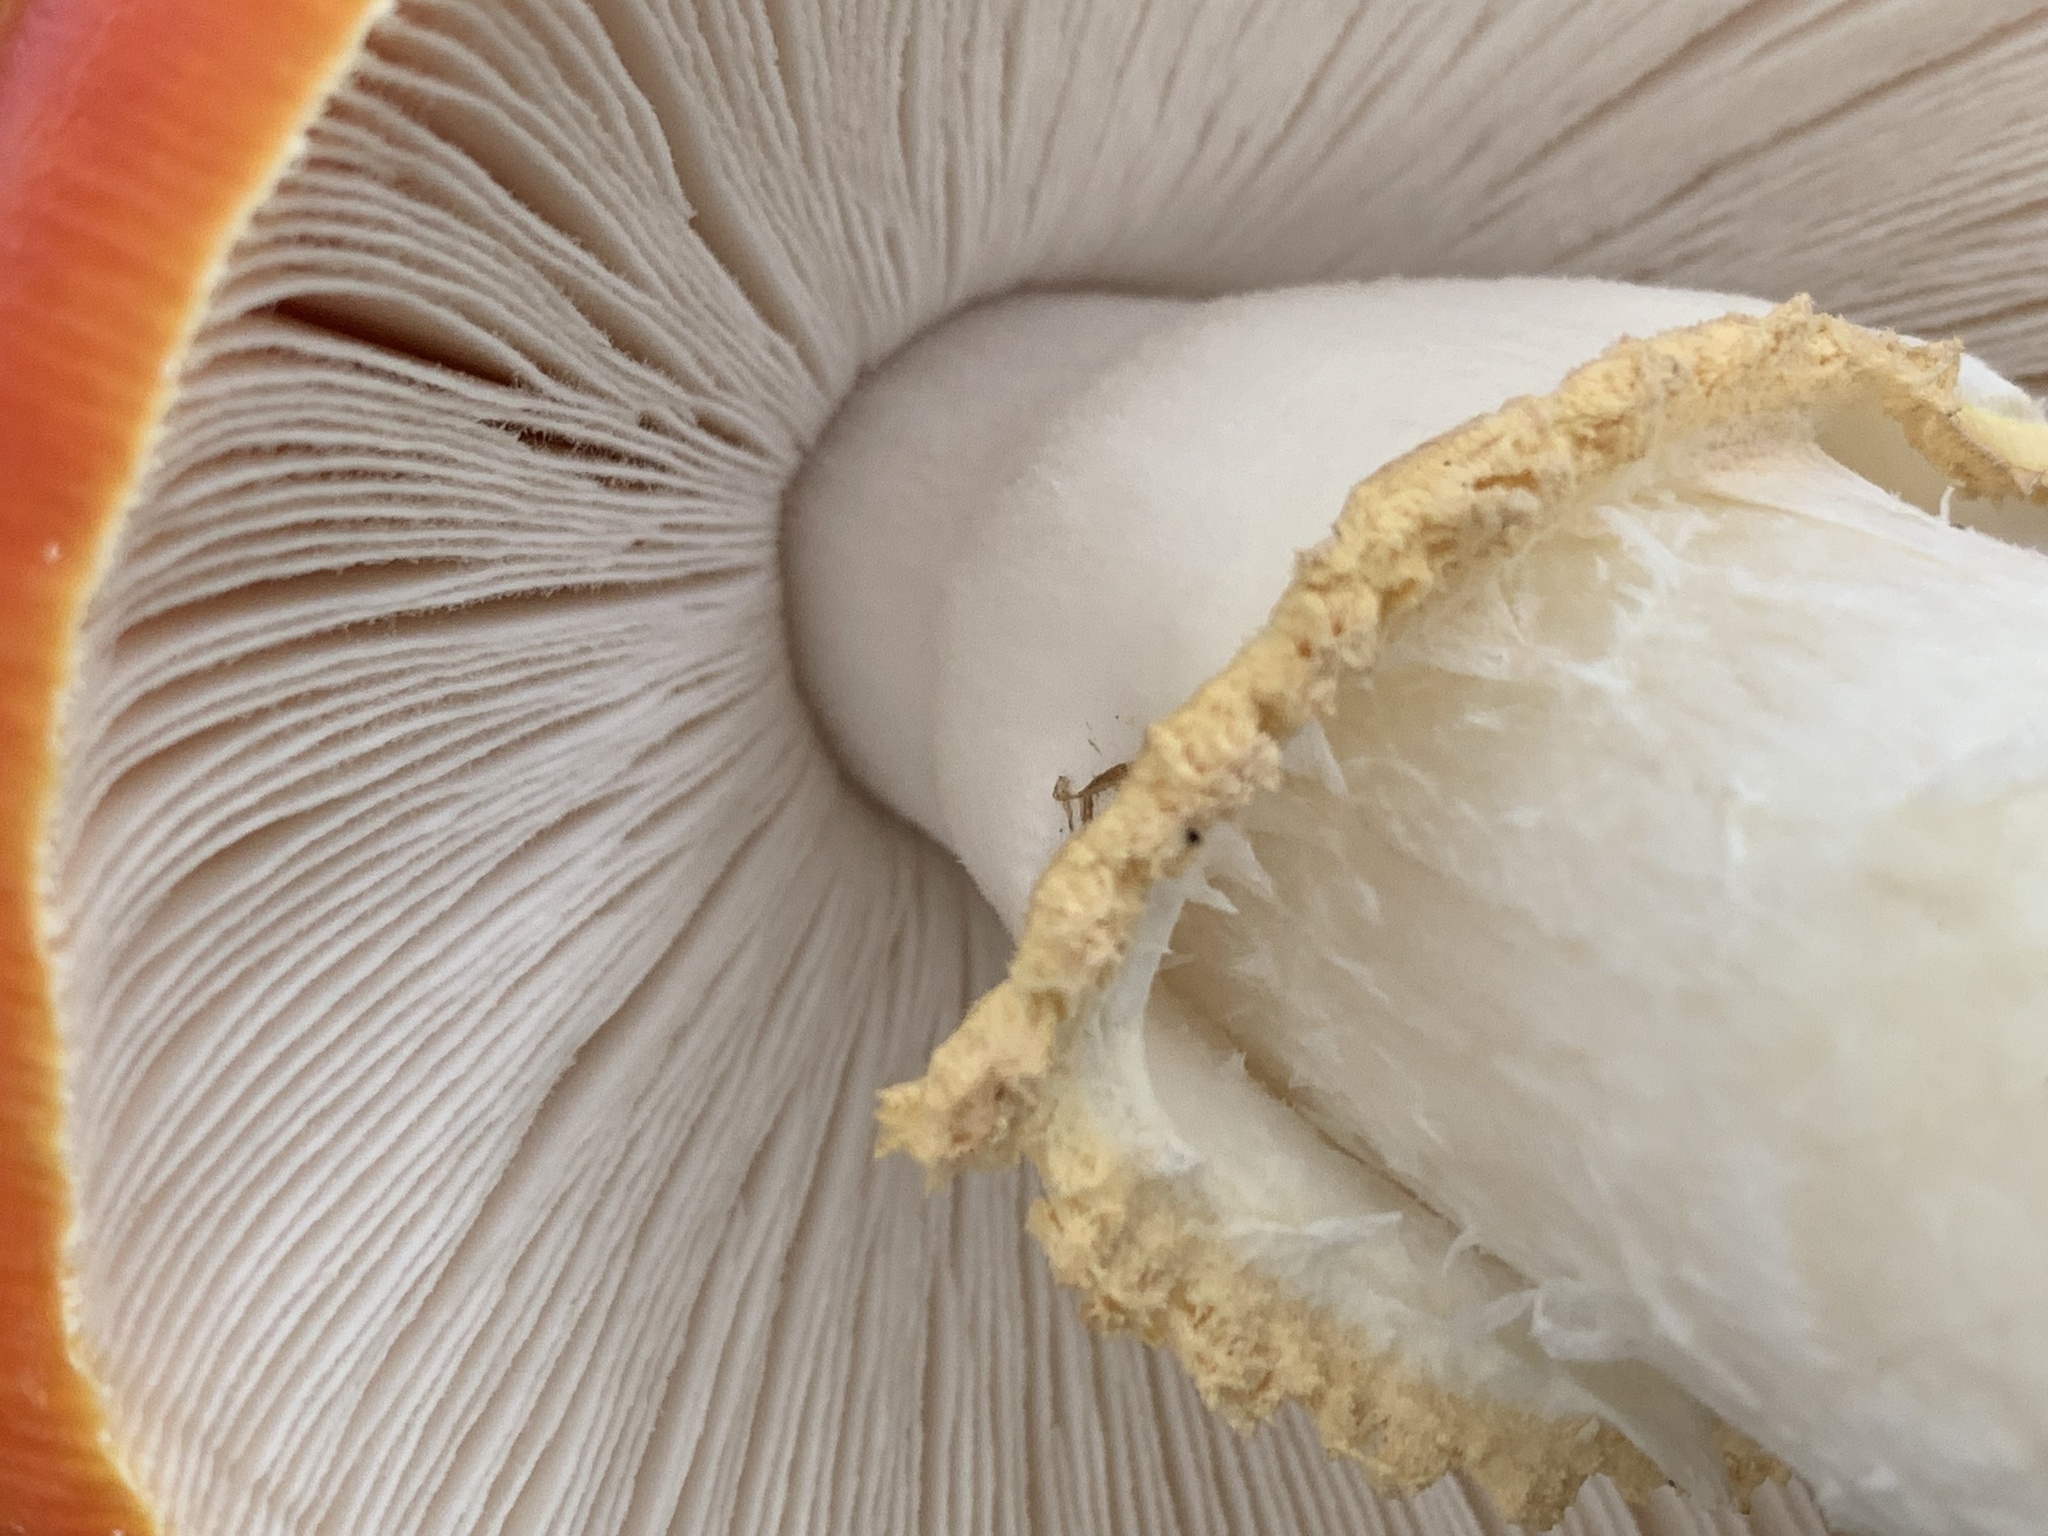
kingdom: Fungi
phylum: Basidiomycota
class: Agaricomycetes
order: Agaricales
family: Amanitaceae
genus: Amanita
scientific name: Amanita muscaria
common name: Fly agaric
